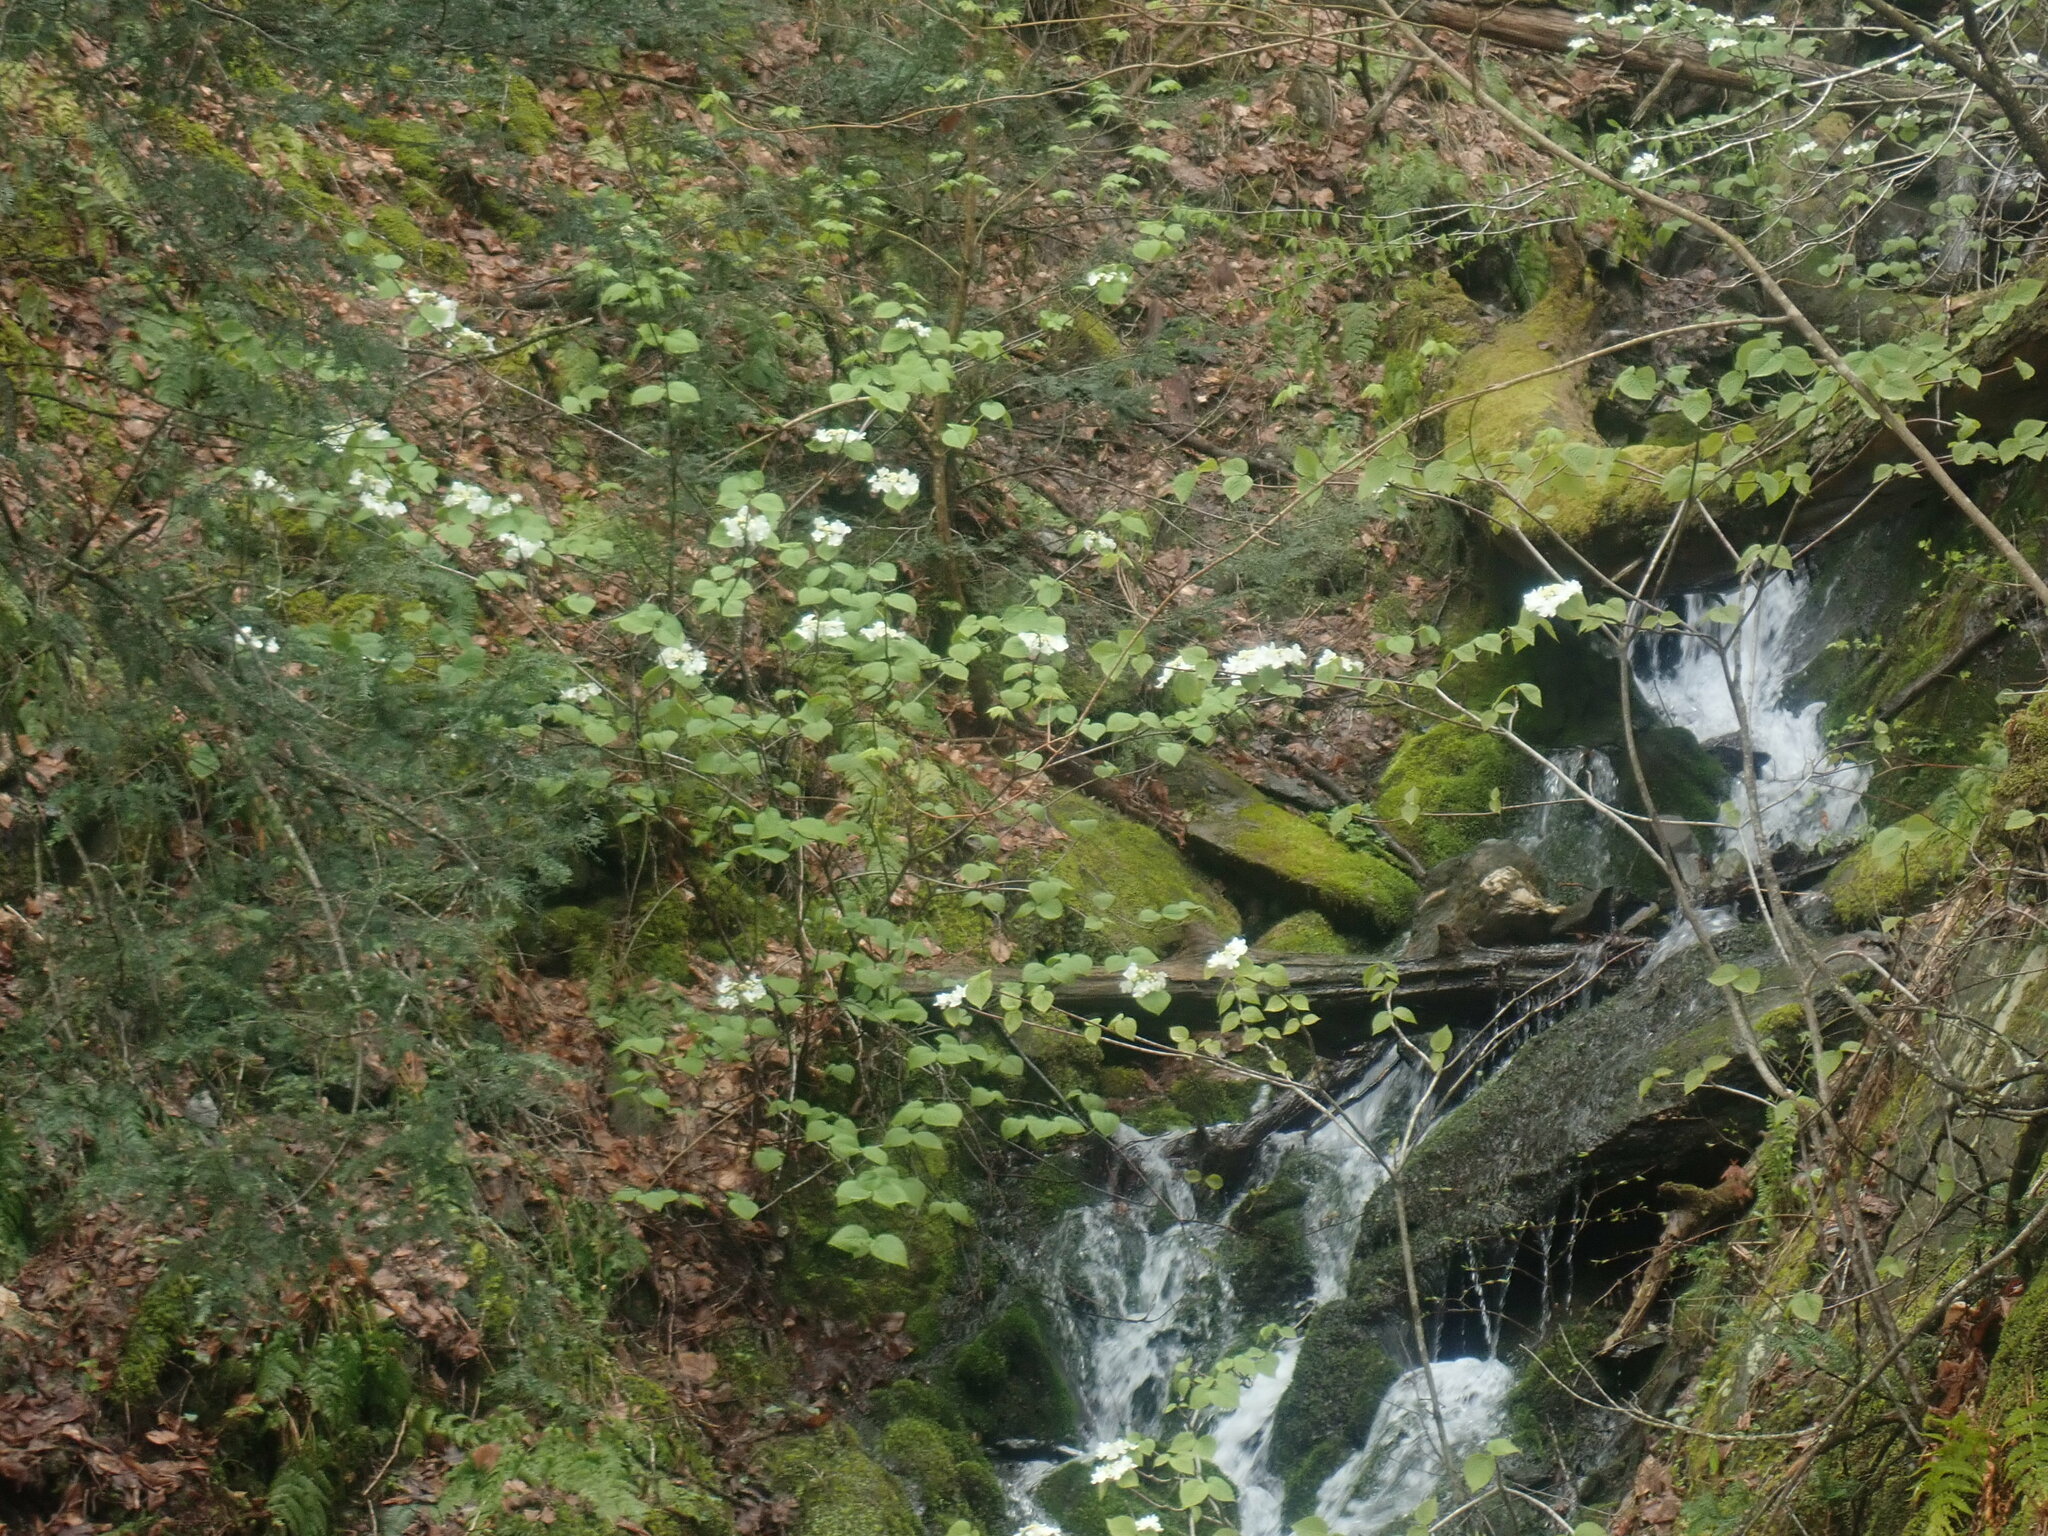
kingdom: Plantae
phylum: Tracheophyta
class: Magnoliopsida
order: Dipsacales
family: Viburnaceae
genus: Viburnum
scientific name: Viburnum lantanoides
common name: Hobblebush
